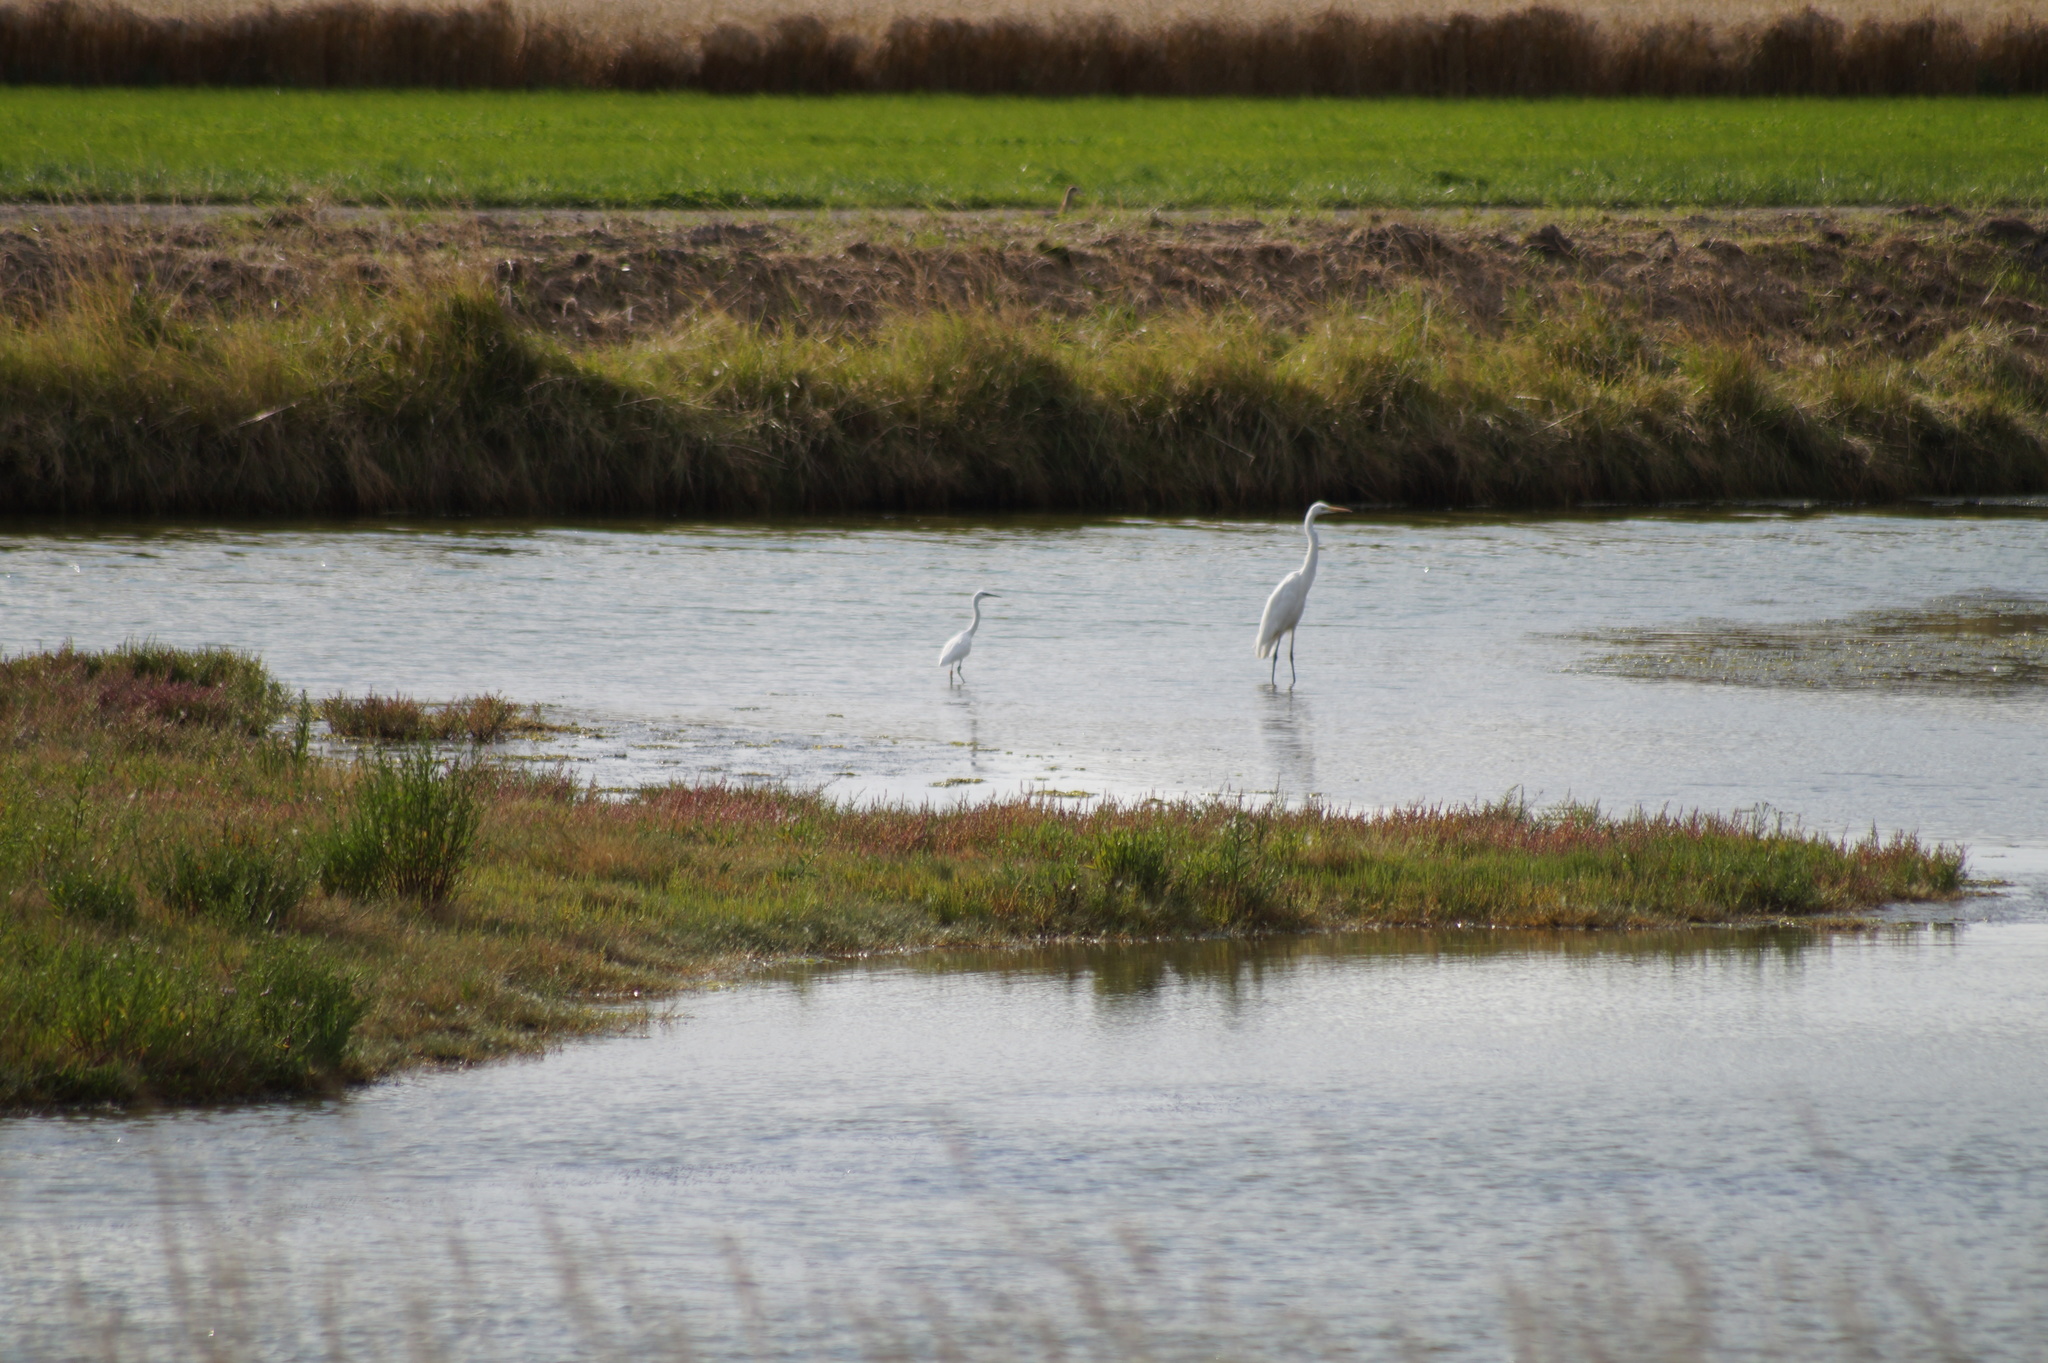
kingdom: Animalia
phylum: Chordata
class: Aves
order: Pelecaniformes
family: Ardeidae
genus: Egretta
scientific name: Egretta garzetta
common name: Little egret
